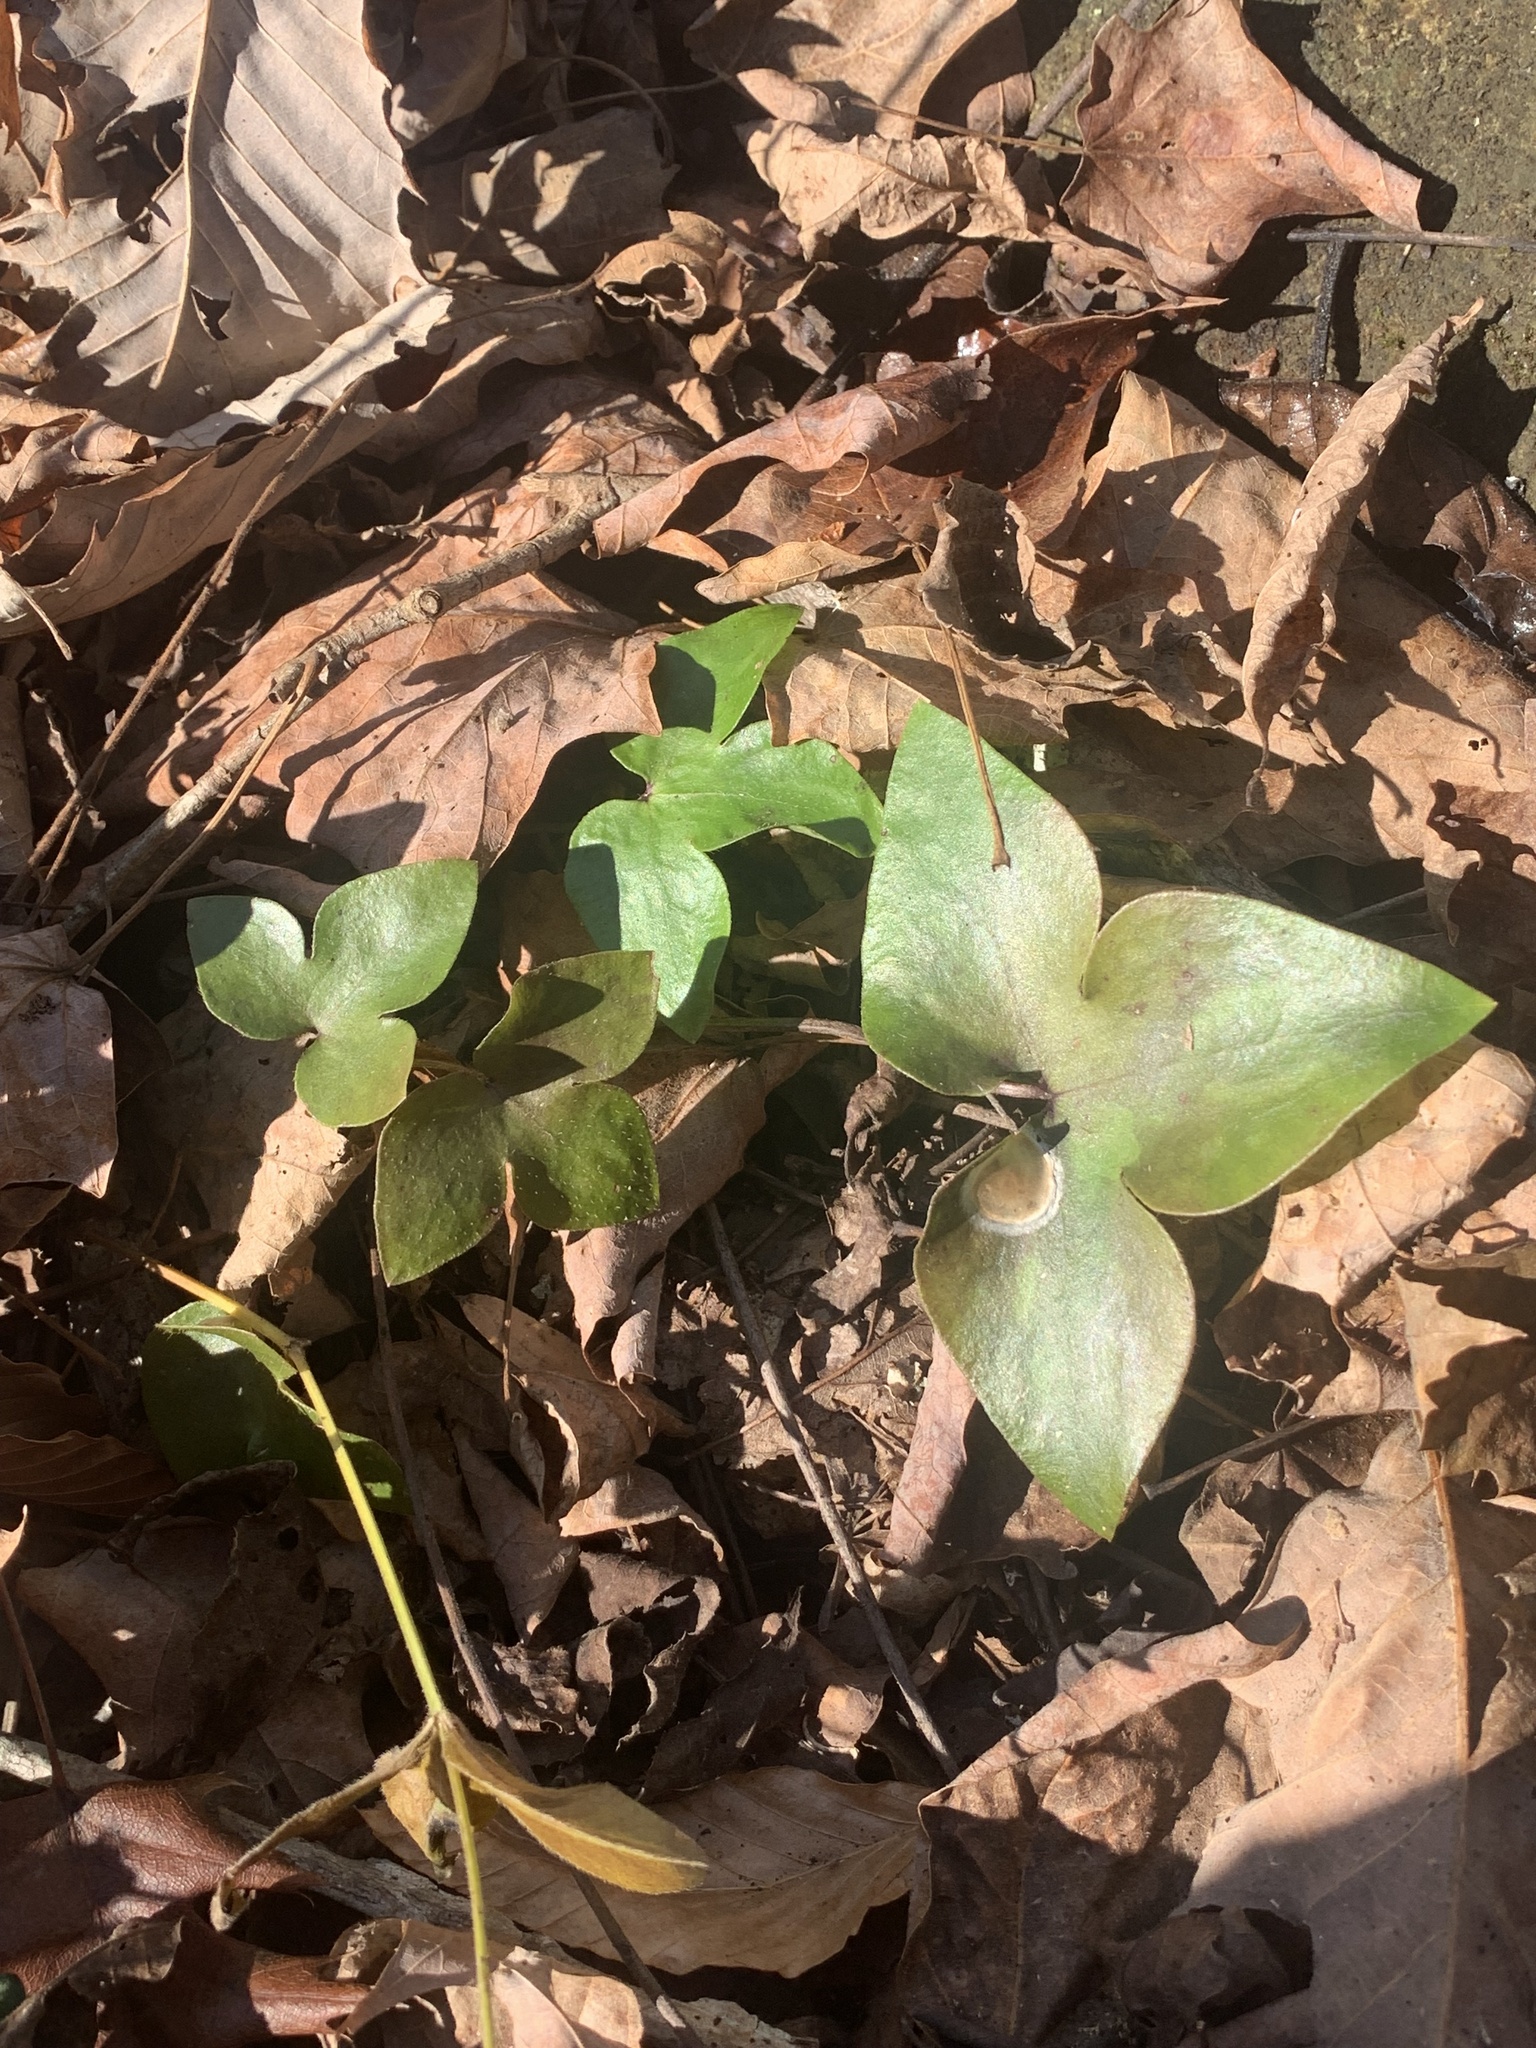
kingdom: Plantae
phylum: Tracheophyta
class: Magnoliopsida
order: Ranunculales
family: Ranunculaceae
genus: Hepatica
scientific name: Hepatica acutiloba
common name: Sharp-lobed hepatica
